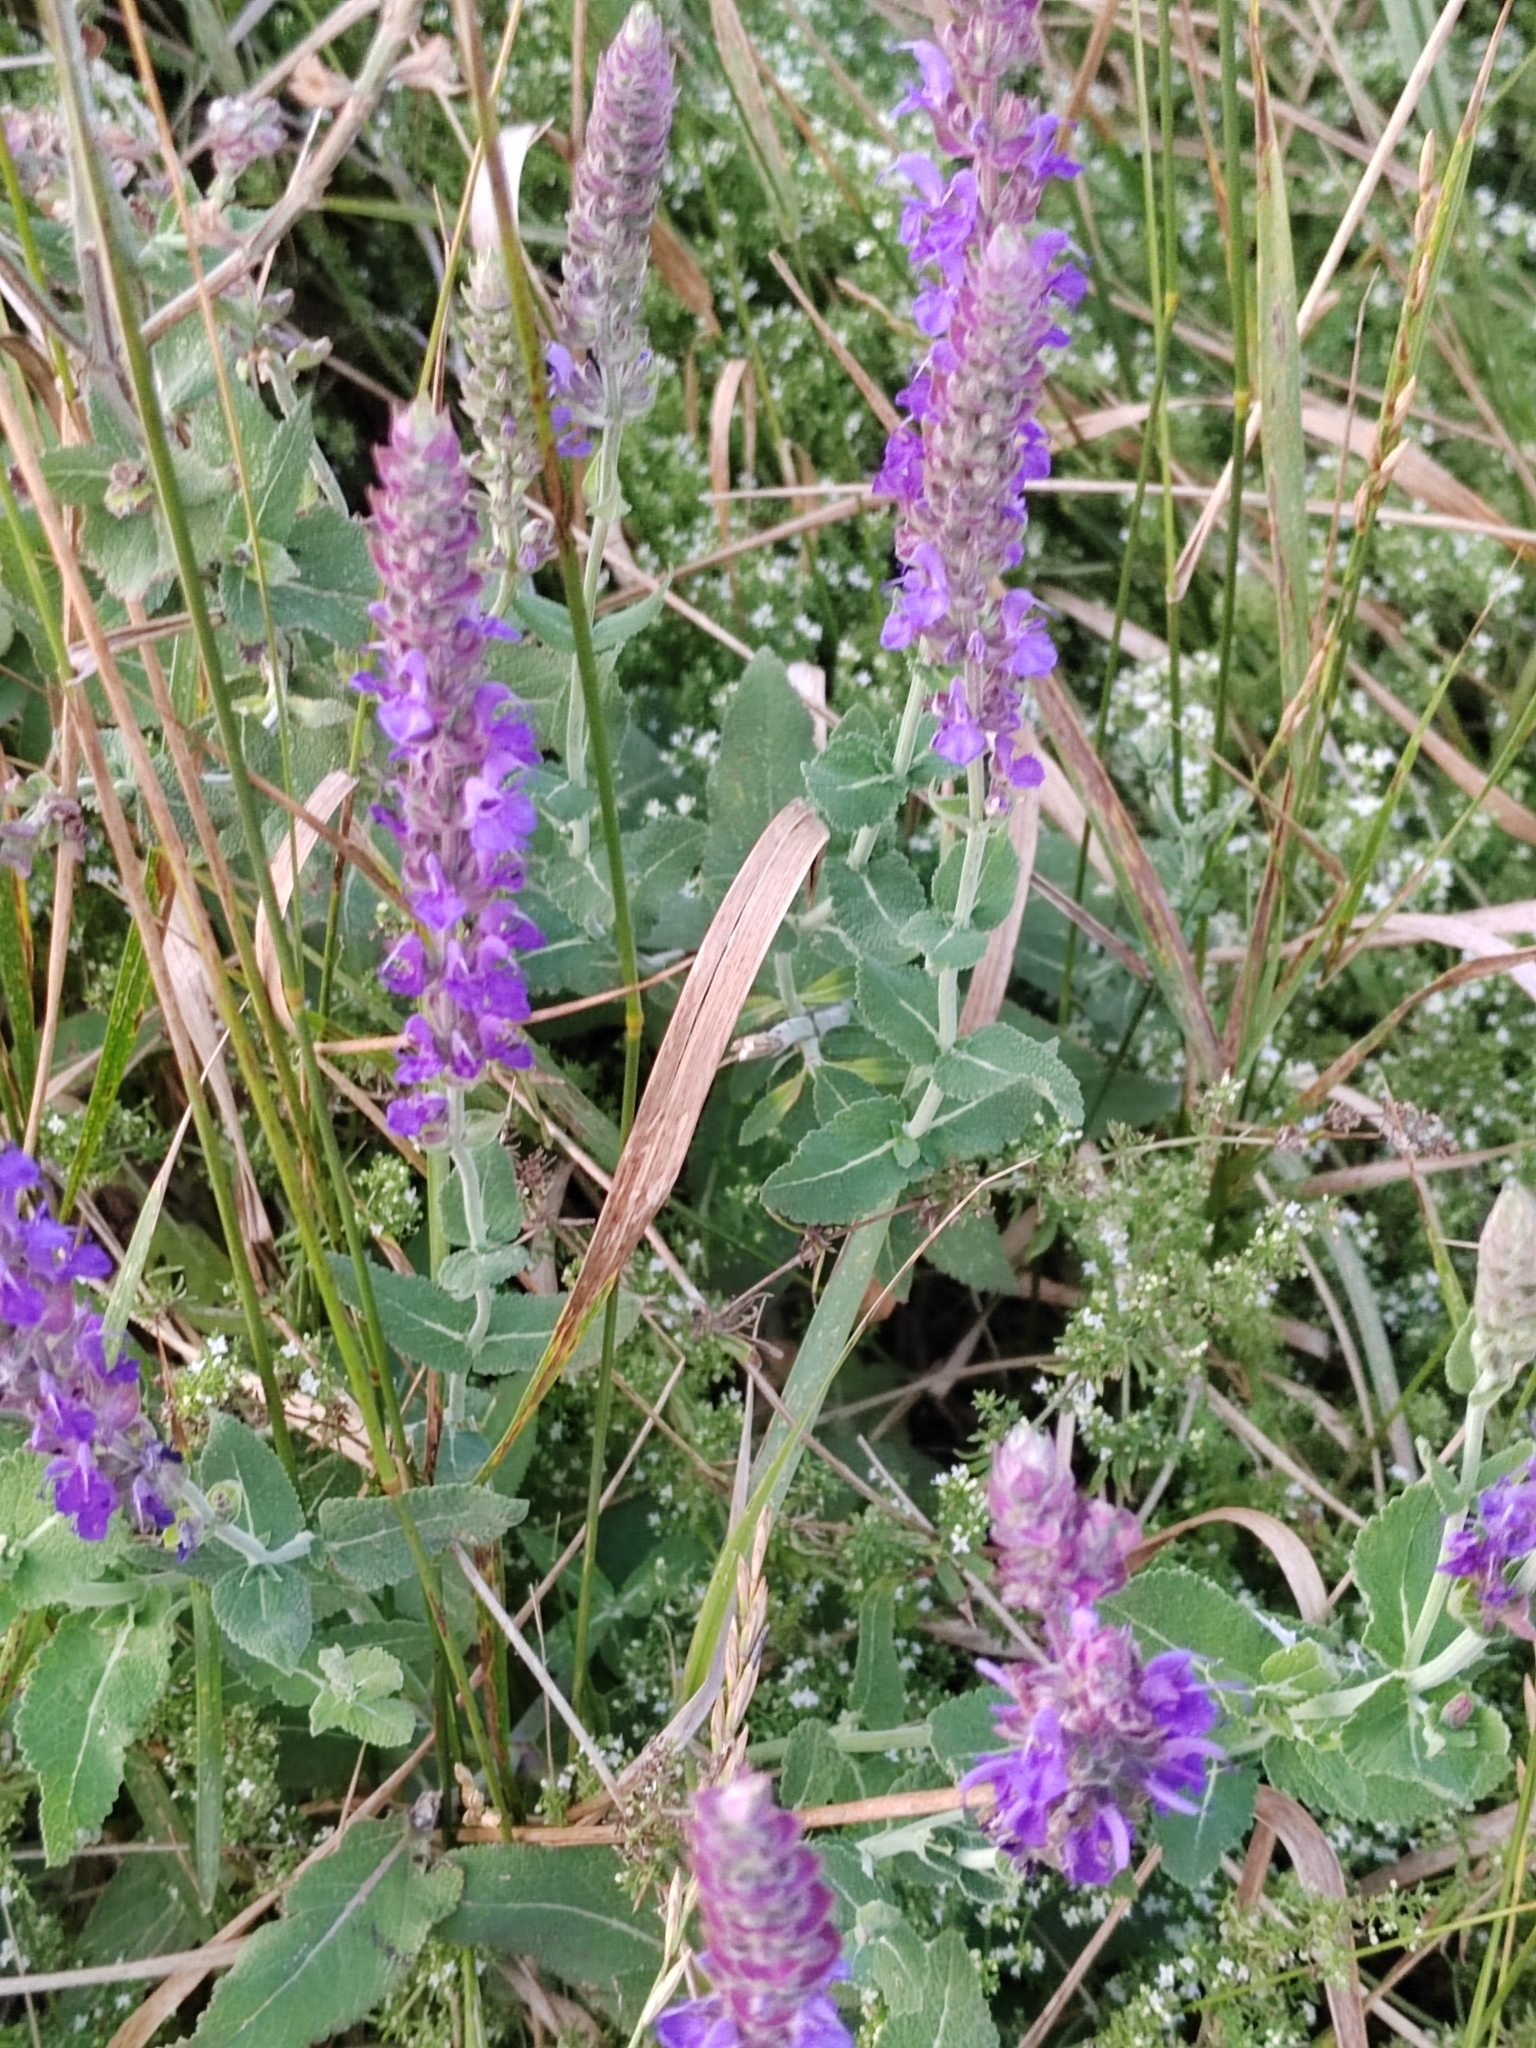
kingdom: Plantae
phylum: Tracheophyta
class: Magnoliopsida
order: Lamiales
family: Lamiaceae
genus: Salvia
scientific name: Salvia nemorosa
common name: Balkan clary
